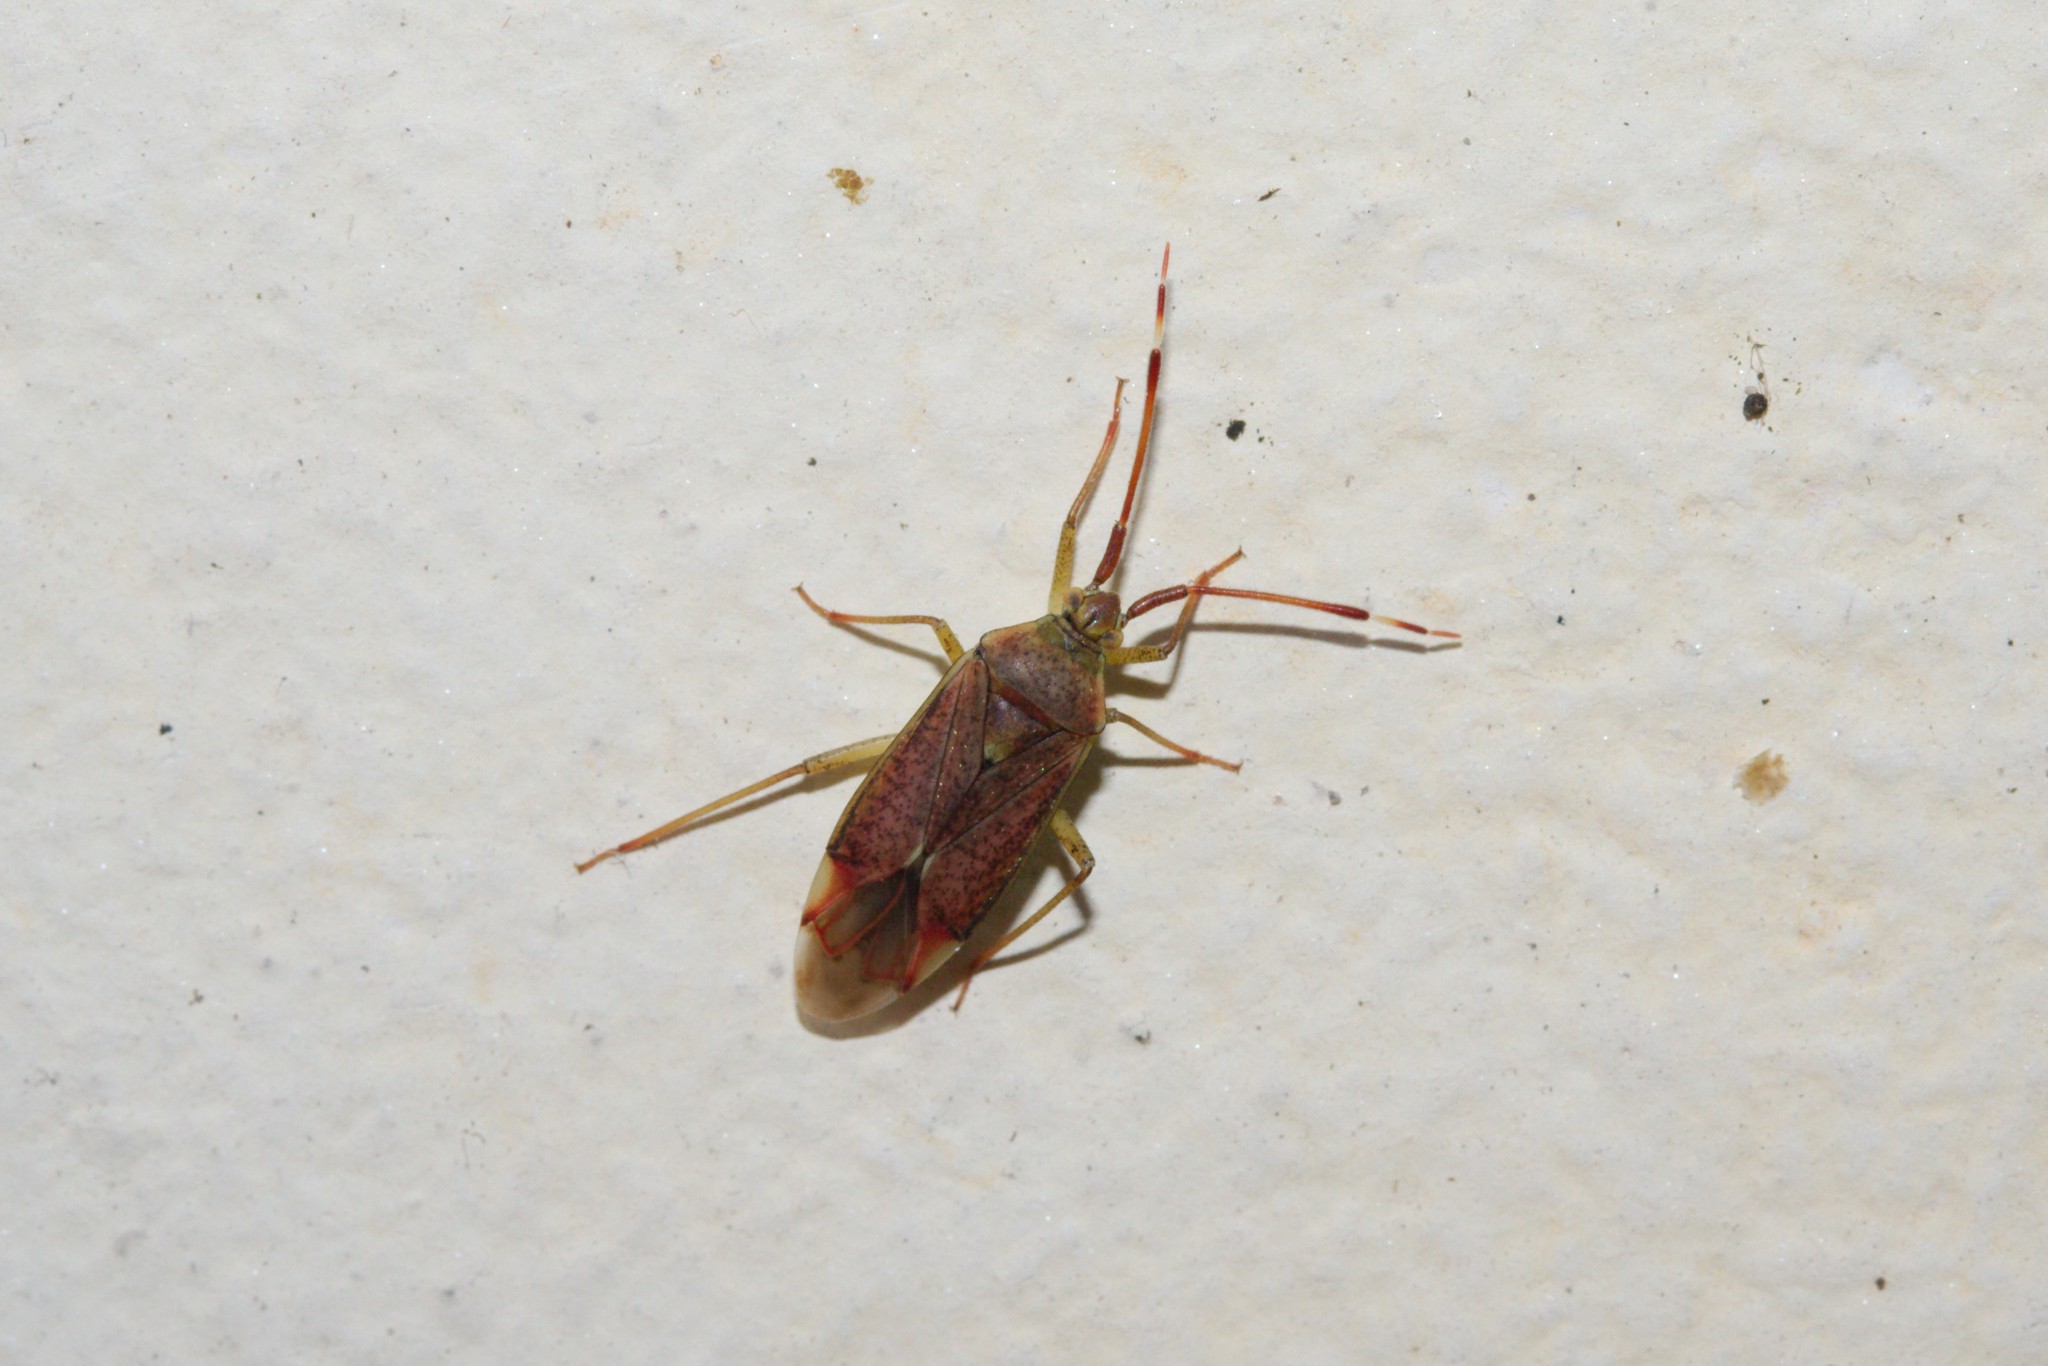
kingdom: Animalia
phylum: Arthropoda
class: Insecta
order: Hemiptera
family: Miridae
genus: Pantilius
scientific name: Pantilius tunicatus
